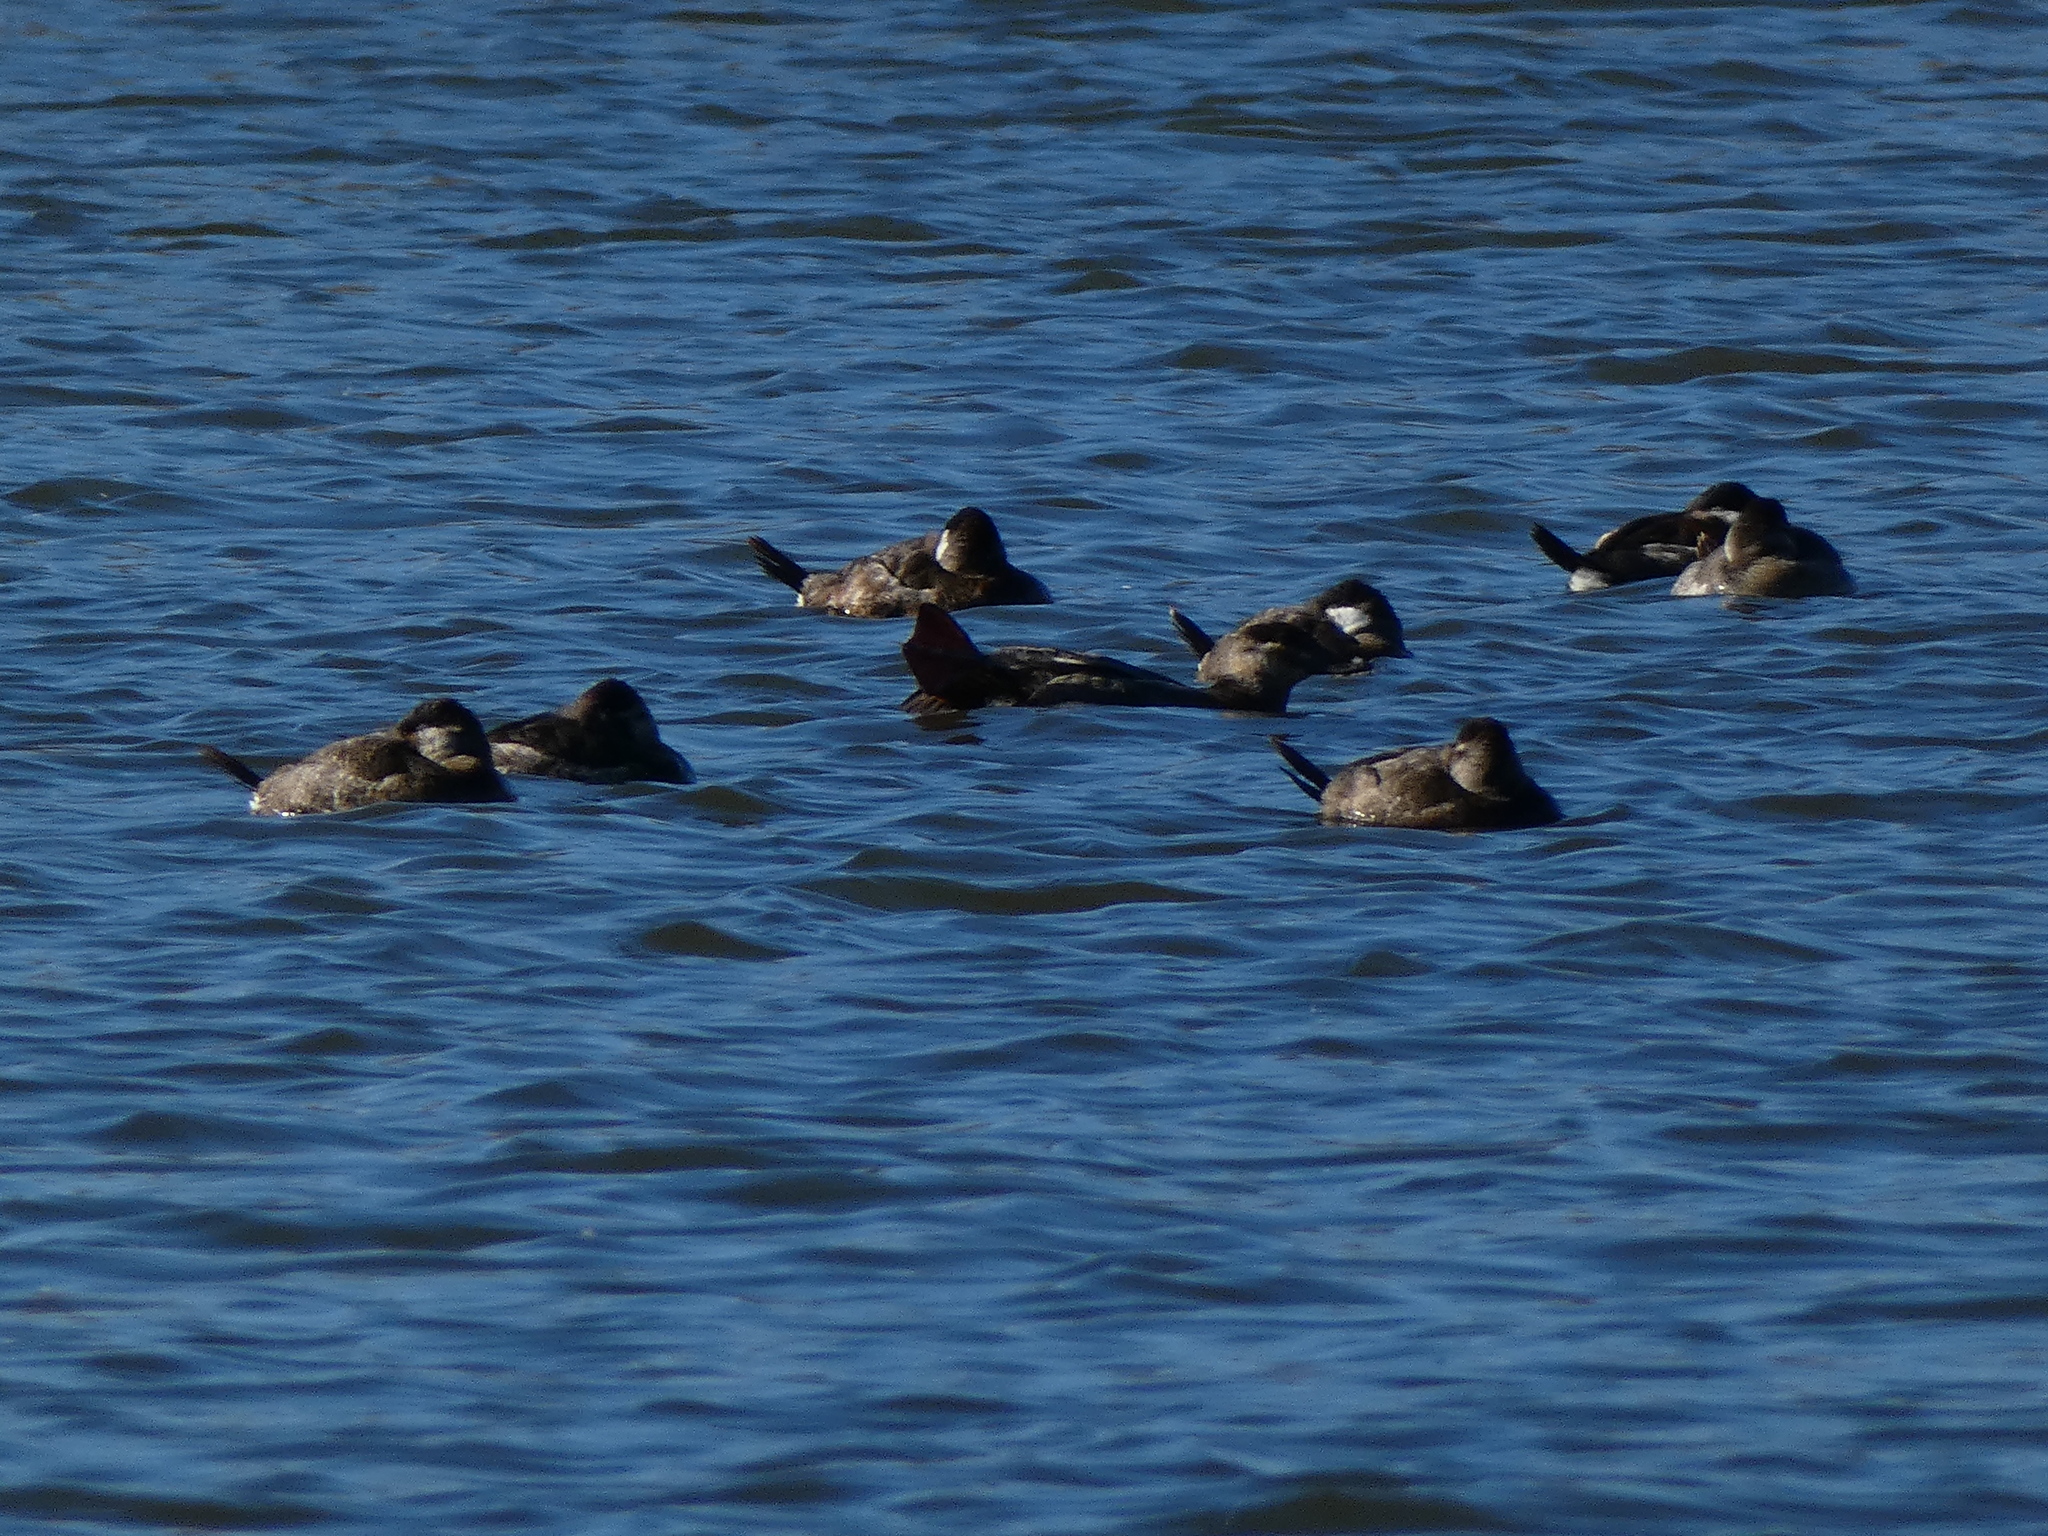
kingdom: Animalia
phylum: Chordata
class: Aves
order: Anseriformes
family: Anatidae
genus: Oxyura
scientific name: Oxyura jamaicensis
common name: Ruddy duck
